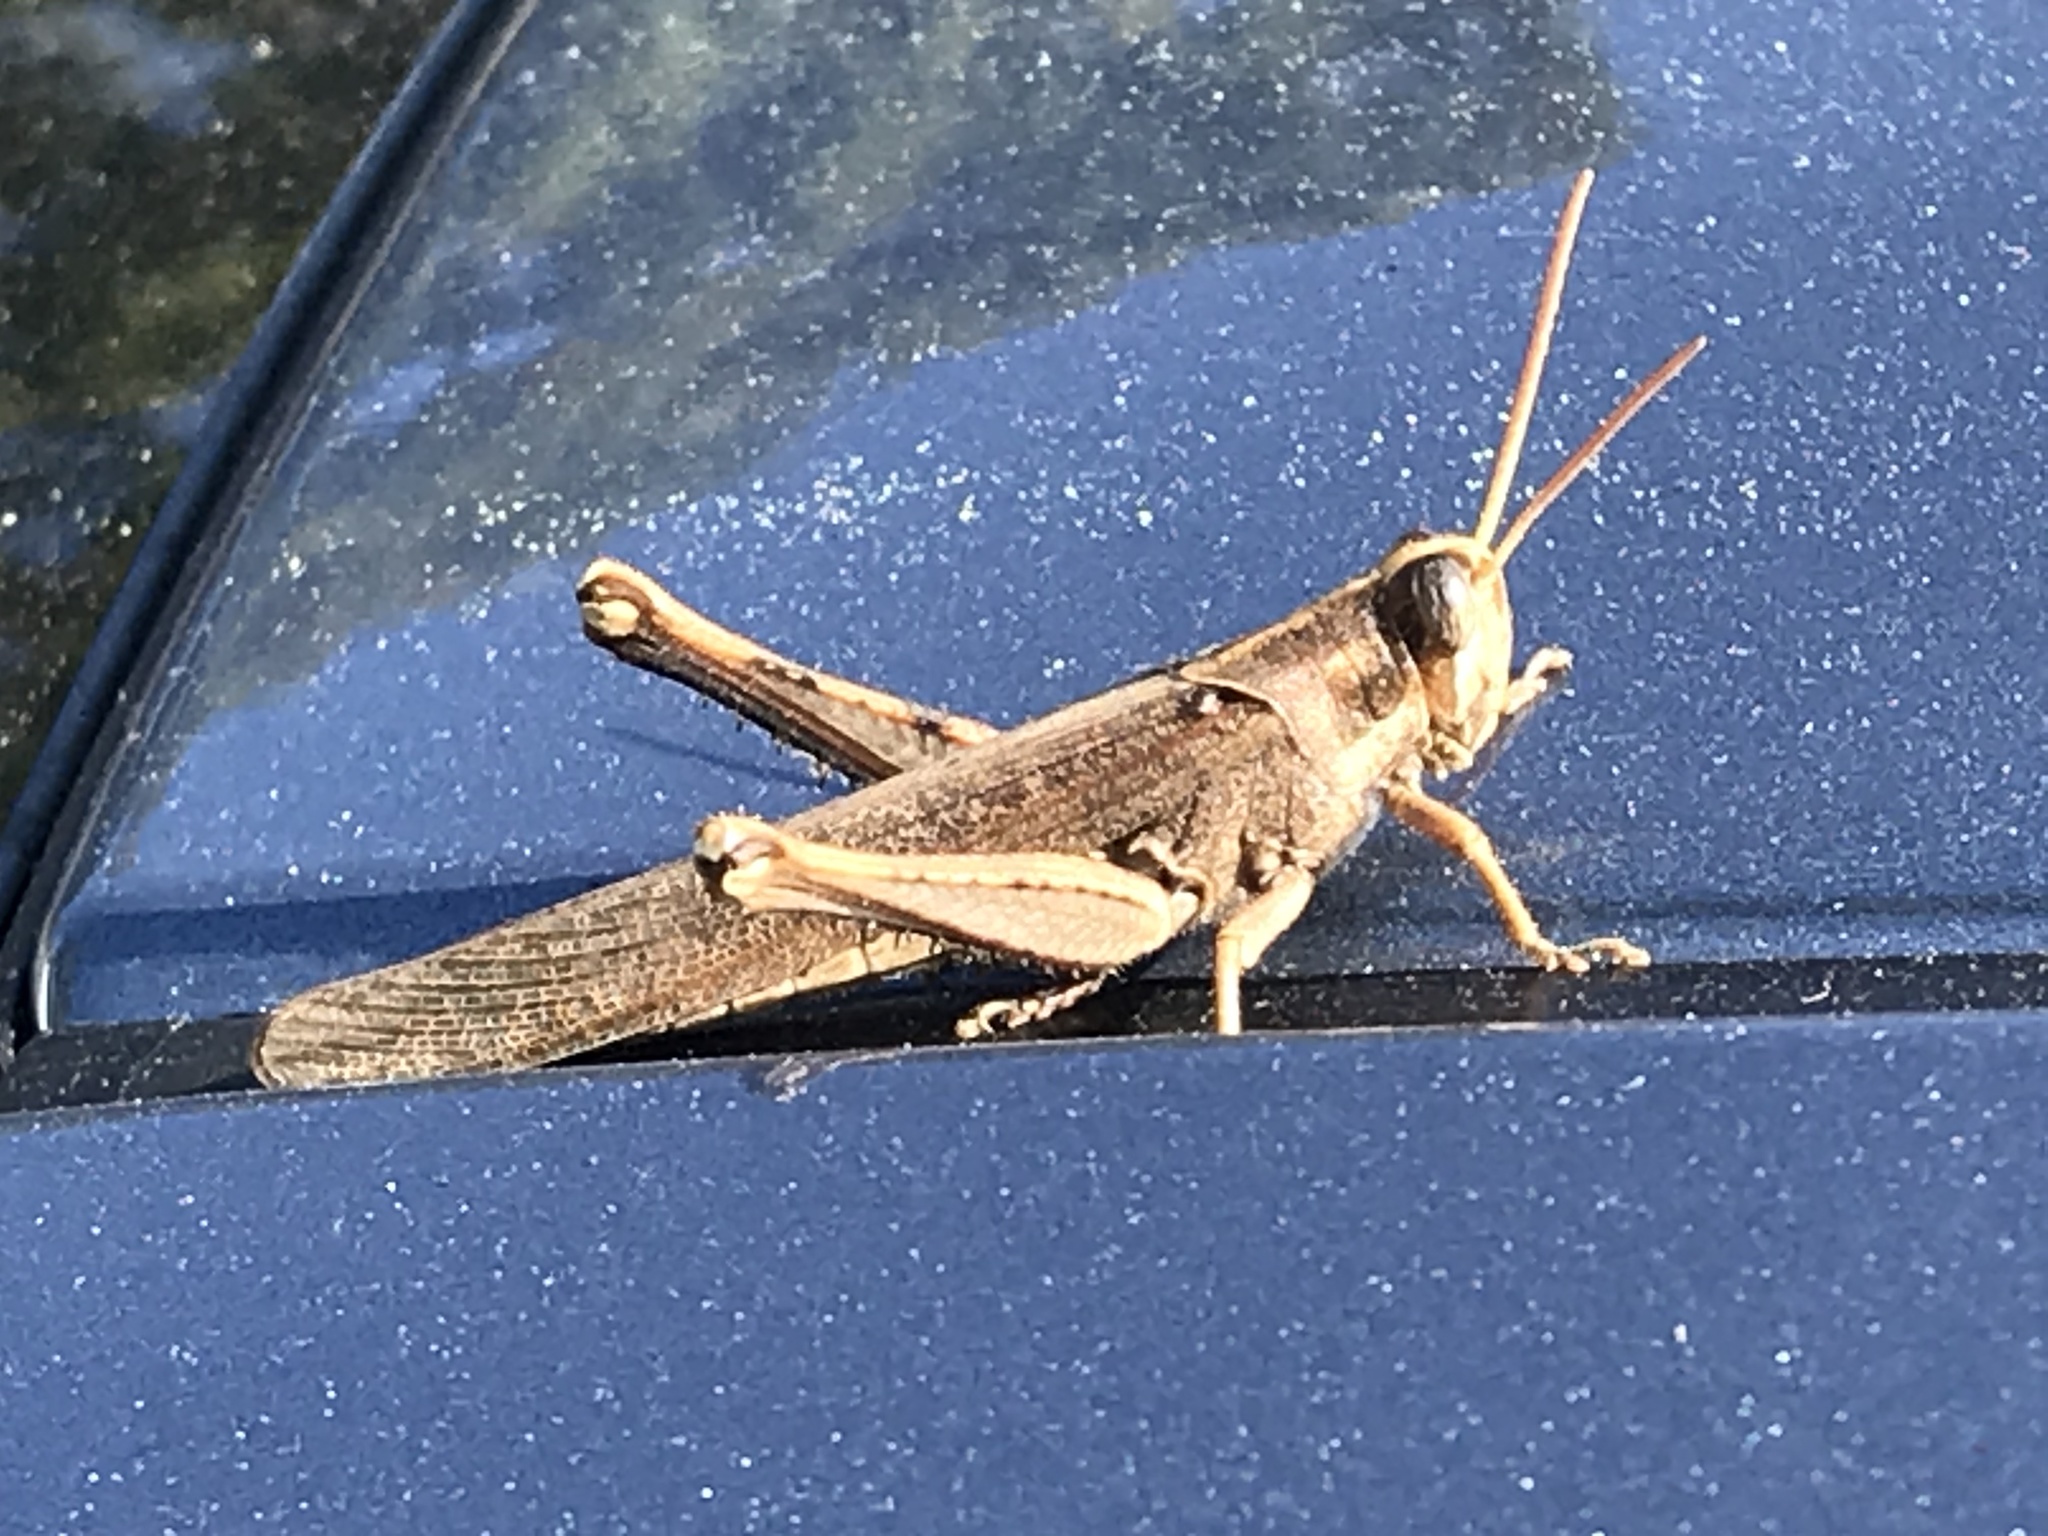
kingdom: Animalia
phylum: Arthropoda
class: Insecta
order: Orthoptera
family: Acrididae
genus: Schistocerca
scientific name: Schistocerca nitens
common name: Vagrant grasshopper
